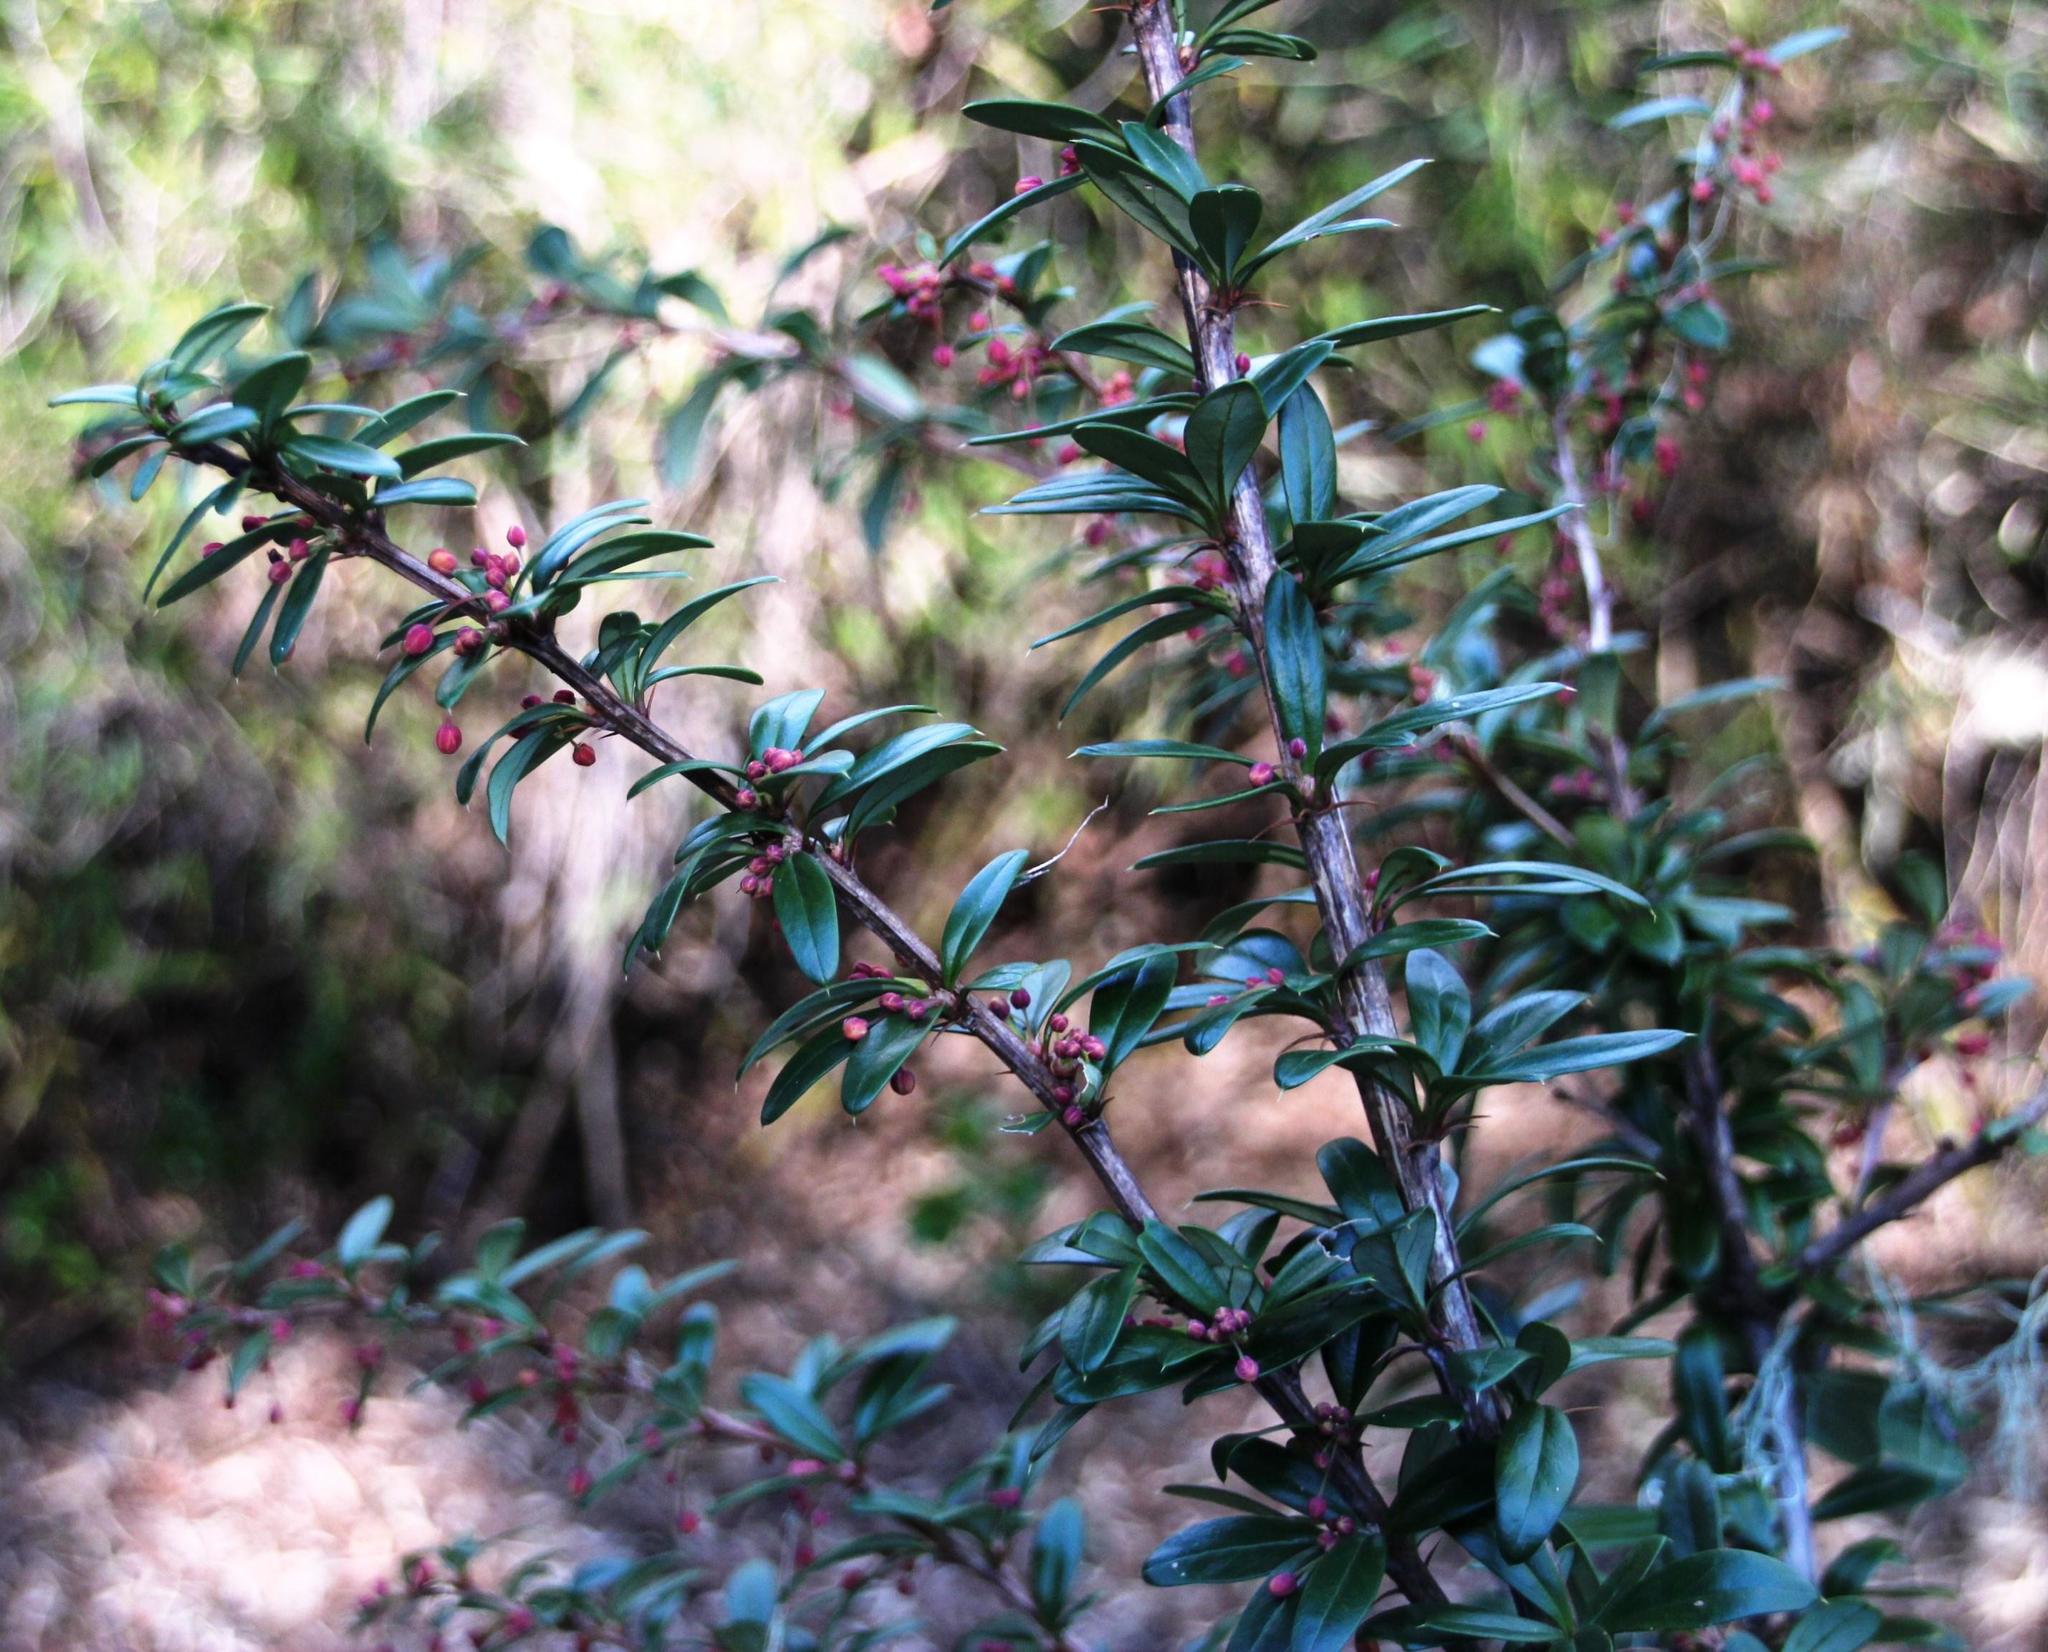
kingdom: Plantae
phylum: Tracheophyta
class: Magnoliopsida
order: Ranunculales
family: Berberidaceae
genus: Berberis
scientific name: Berberis trigona
